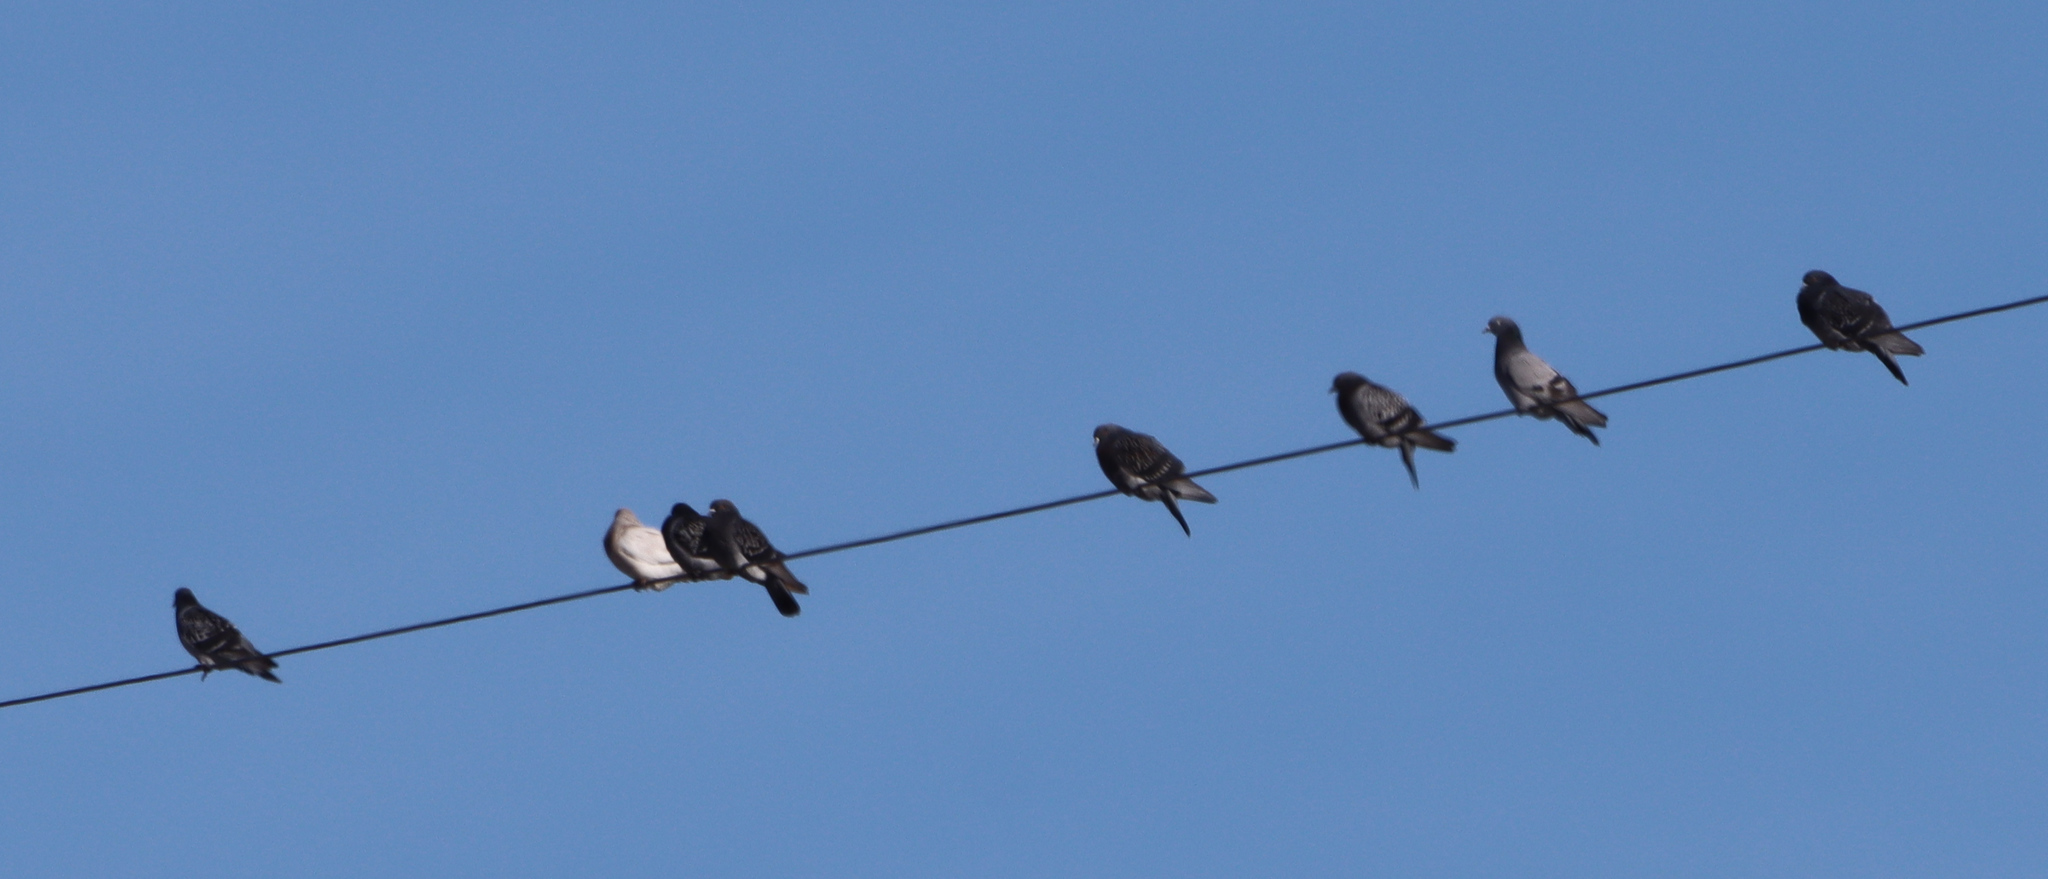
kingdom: Animalia
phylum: Chordata
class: Aves
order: Columbiformes
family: Columbidae
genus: Columba
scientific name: Columba livia
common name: Rock pigeon
